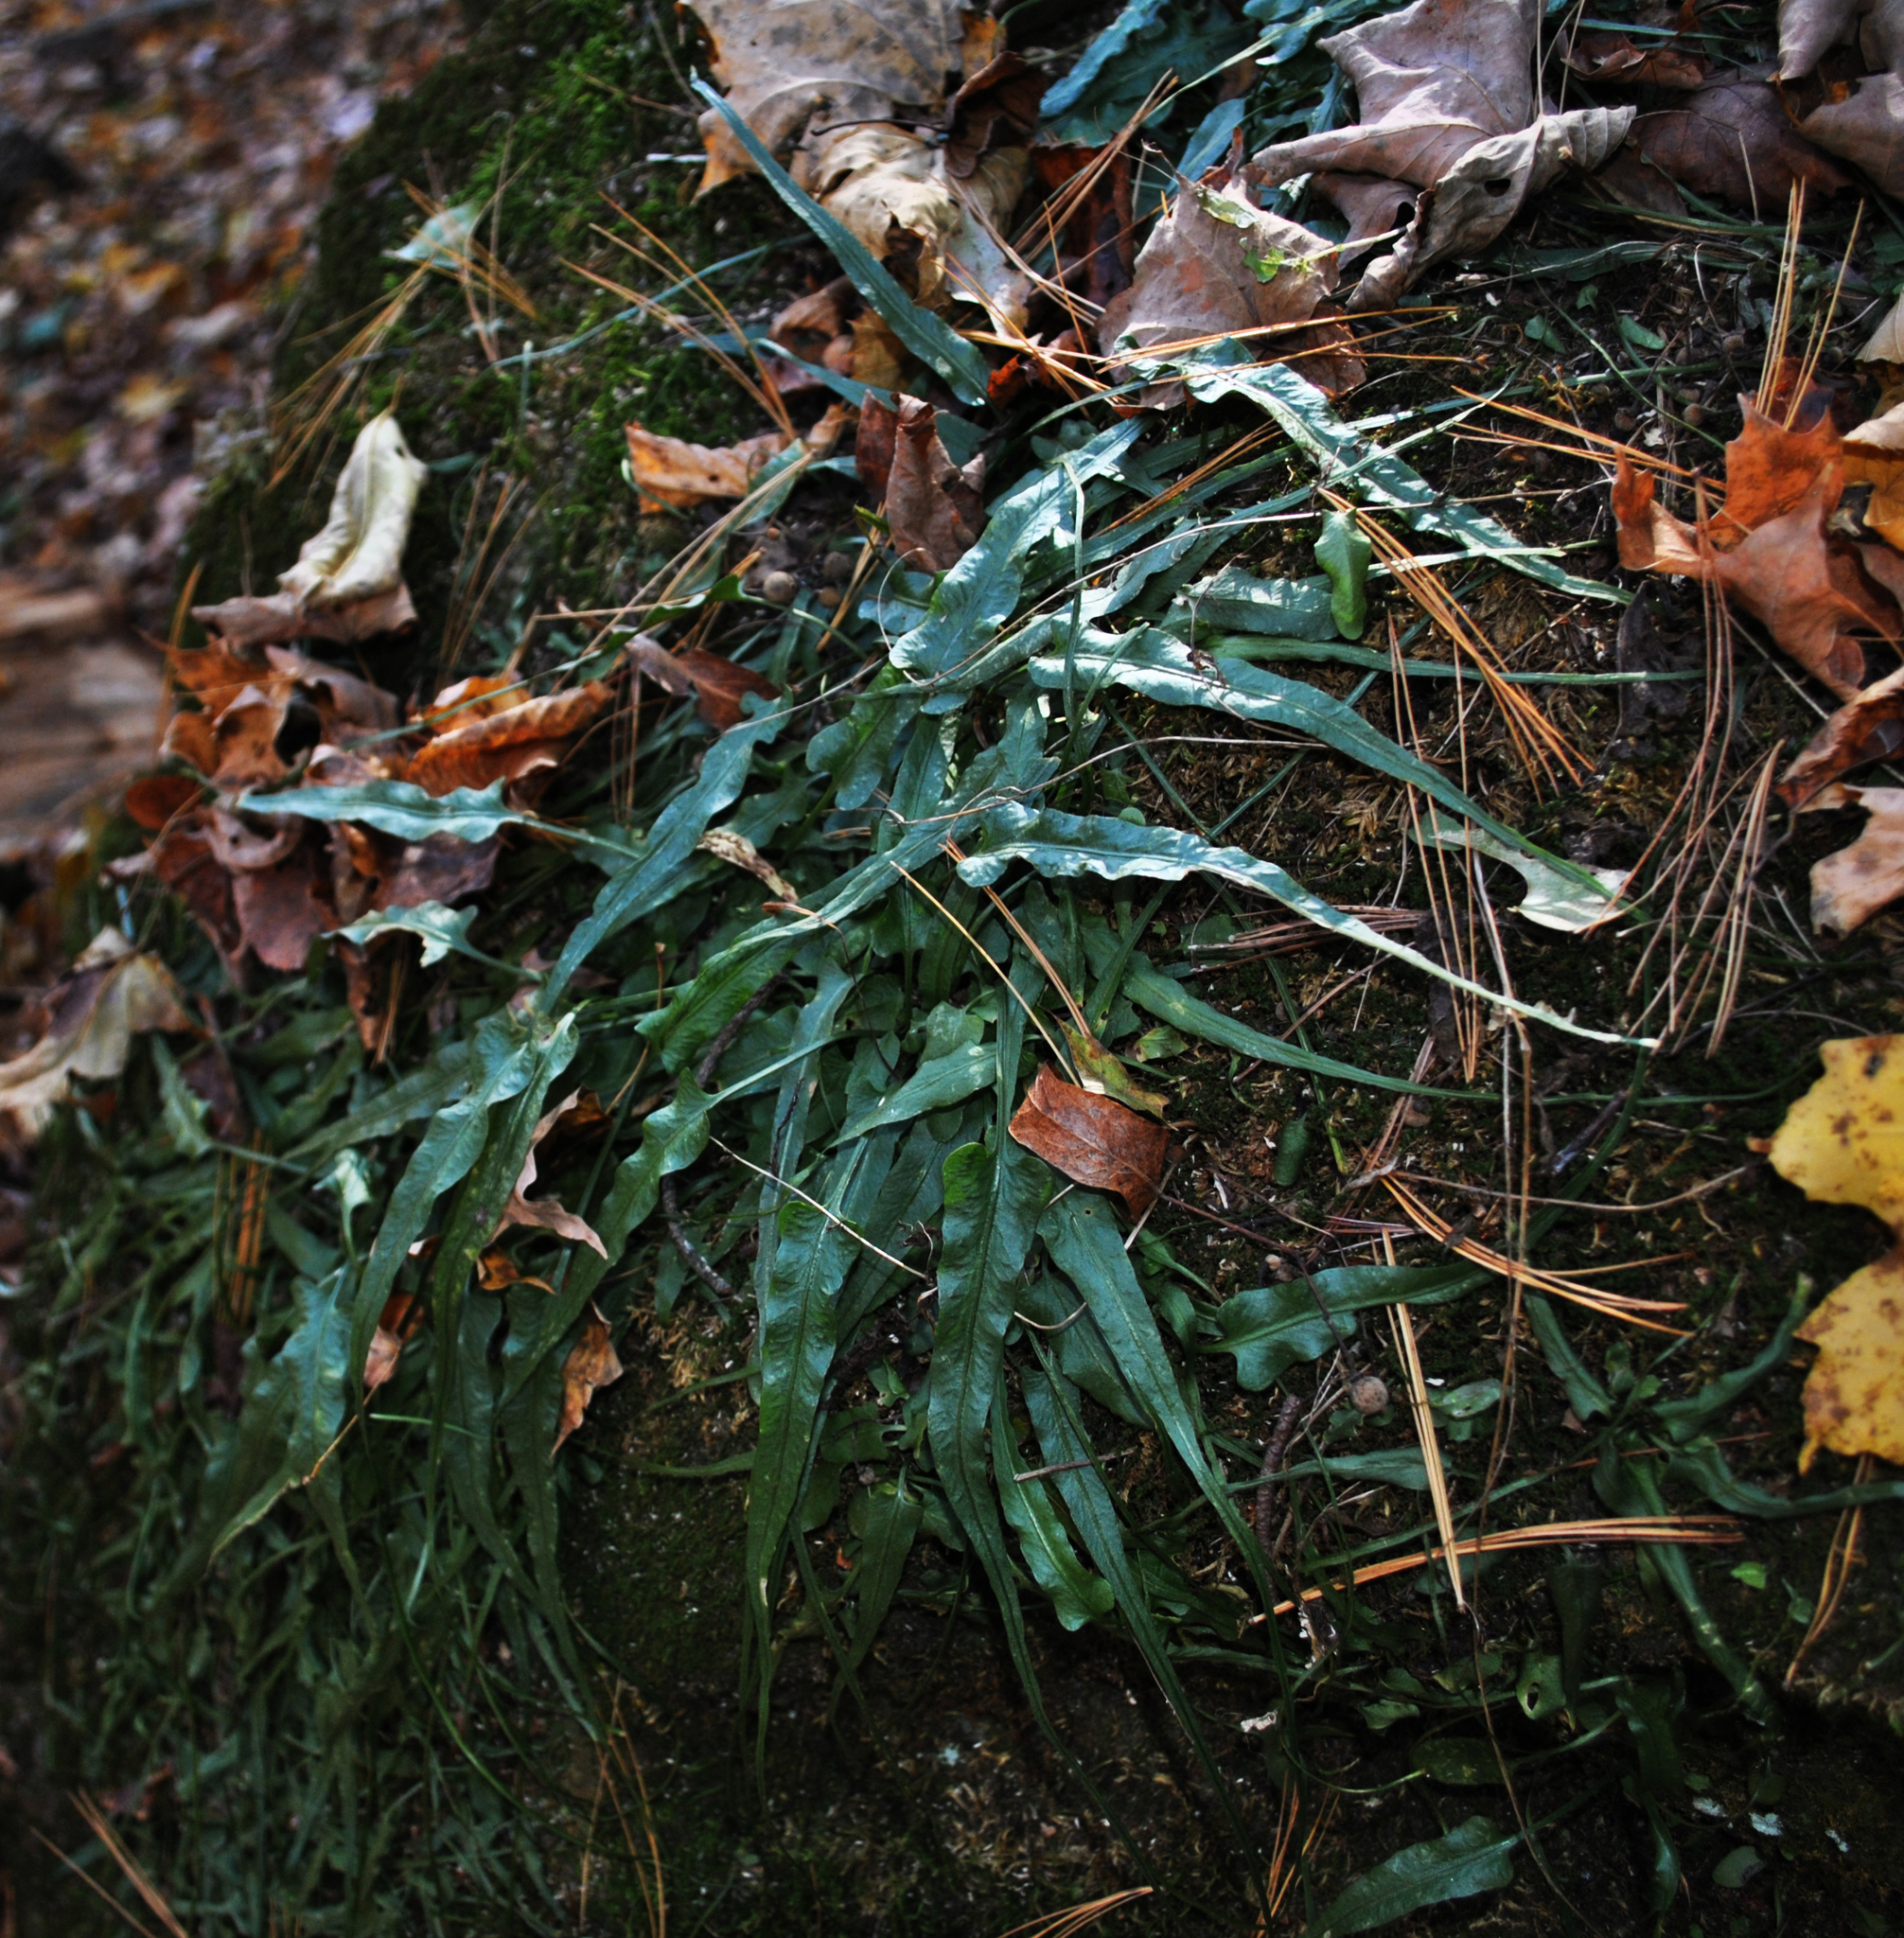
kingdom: Plantae
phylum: Tracheophyta
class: Polypodiopsida
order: Polypodiales
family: Aspleniaceae
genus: Asplenium
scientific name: Asplenium rhizophyllum
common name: Walking fern
